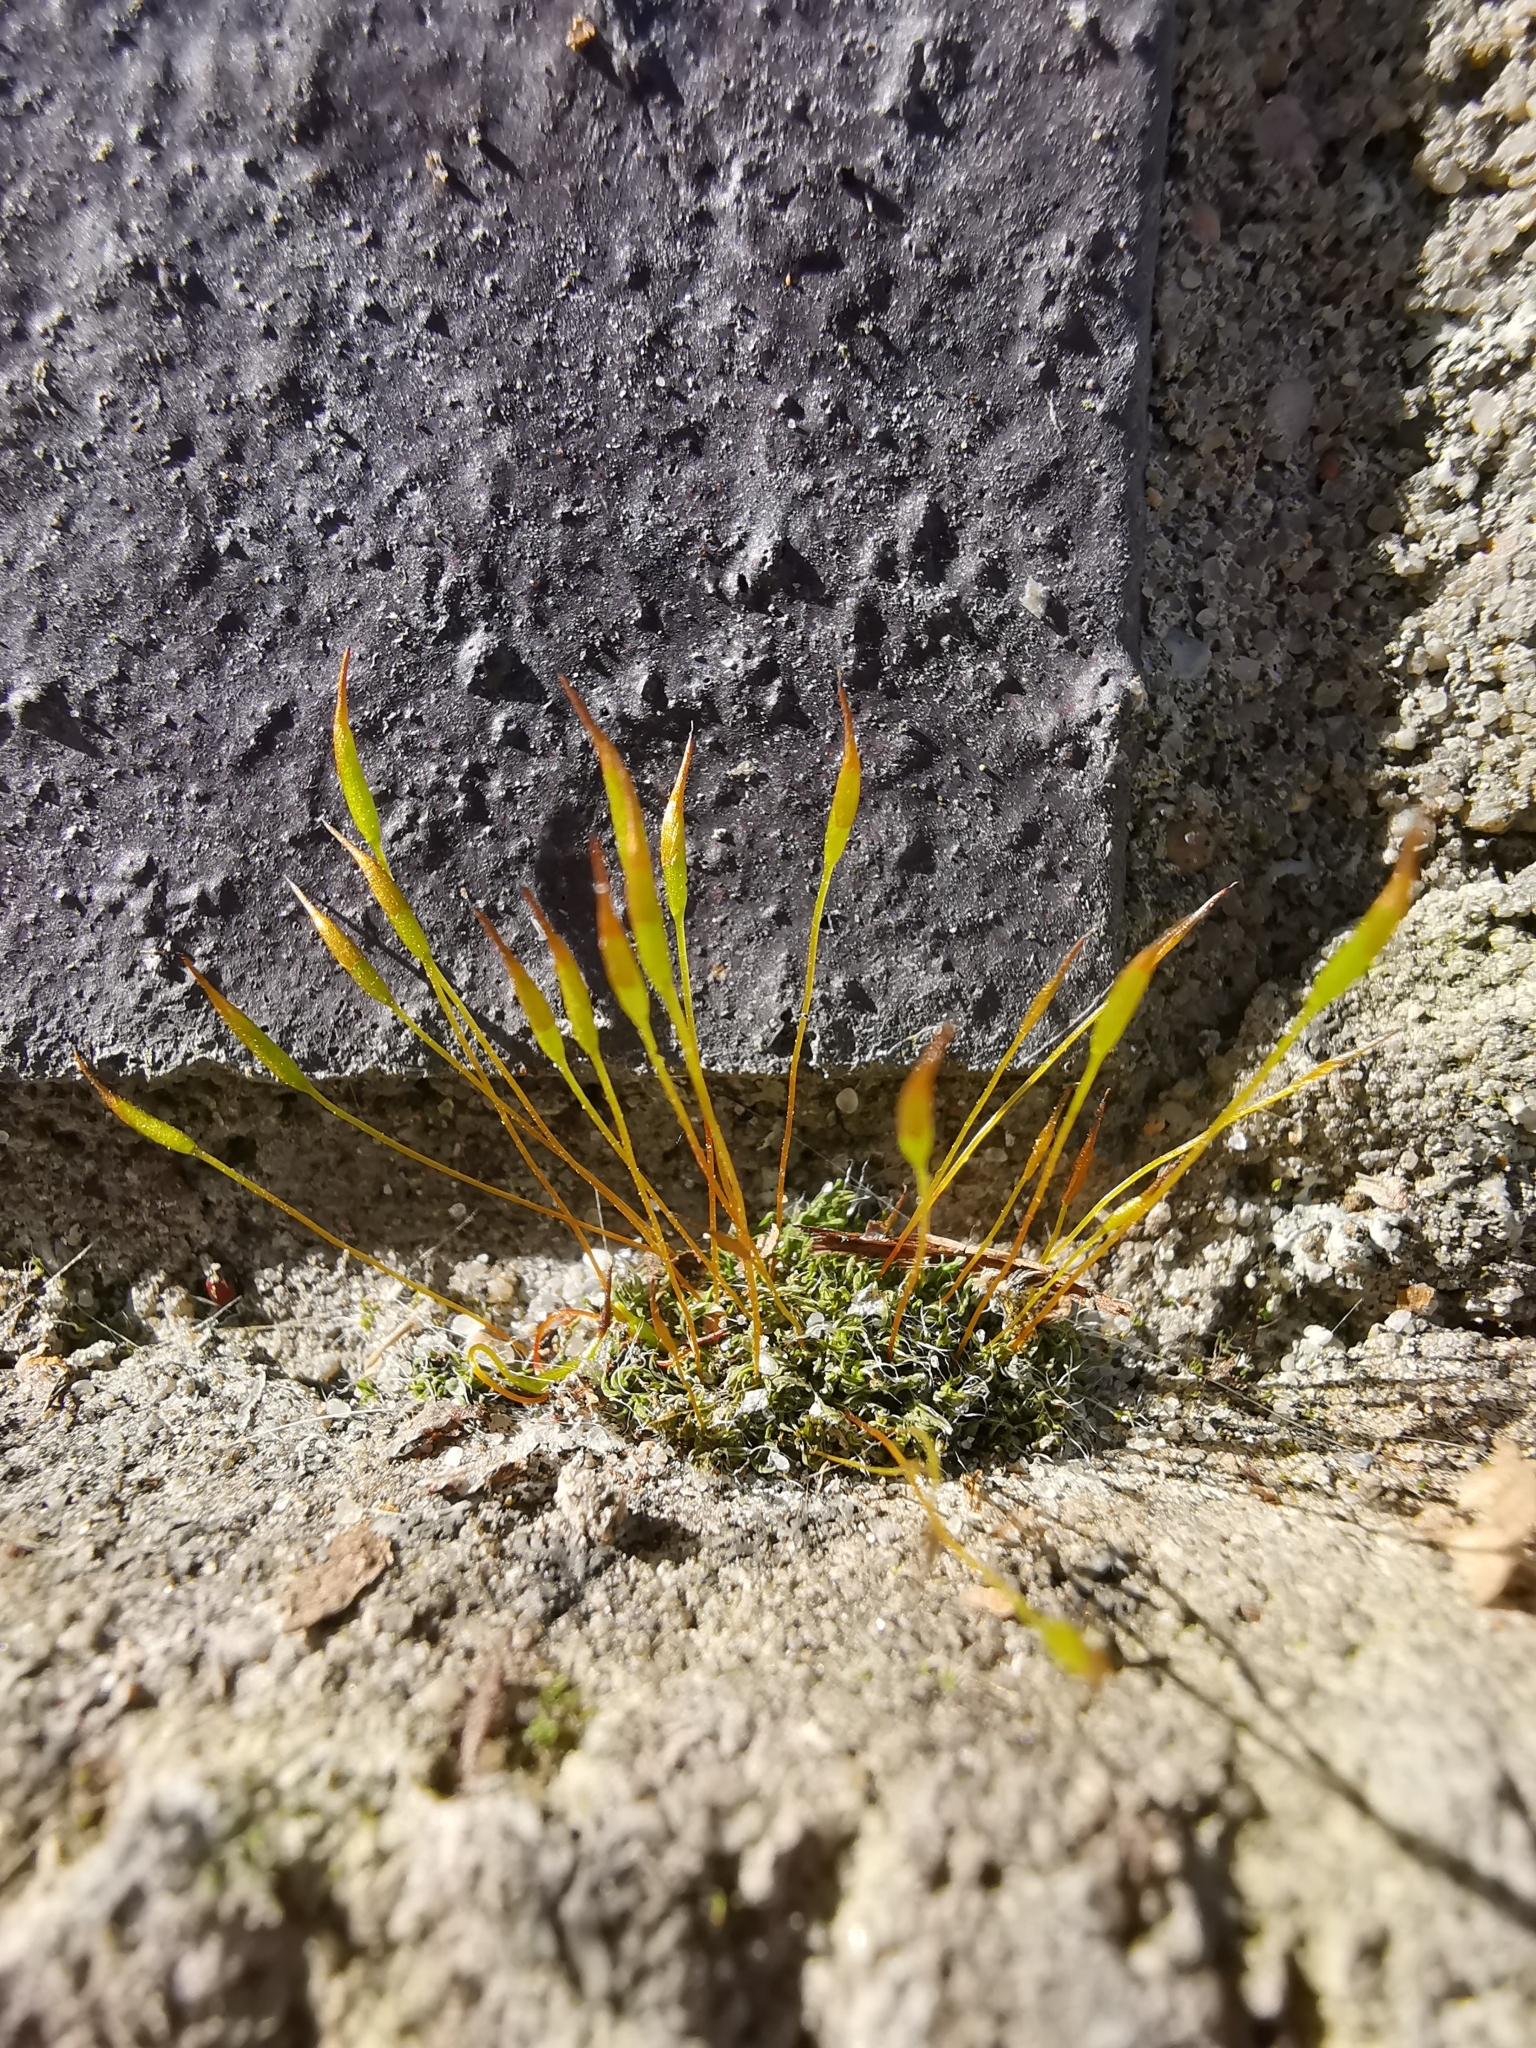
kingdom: Plantae
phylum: Bryophyta
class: Bryopsida
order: Pottiales
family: Pottiaceae
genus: Tortula
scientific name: Tortula muralis
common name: Wall screw-moss
